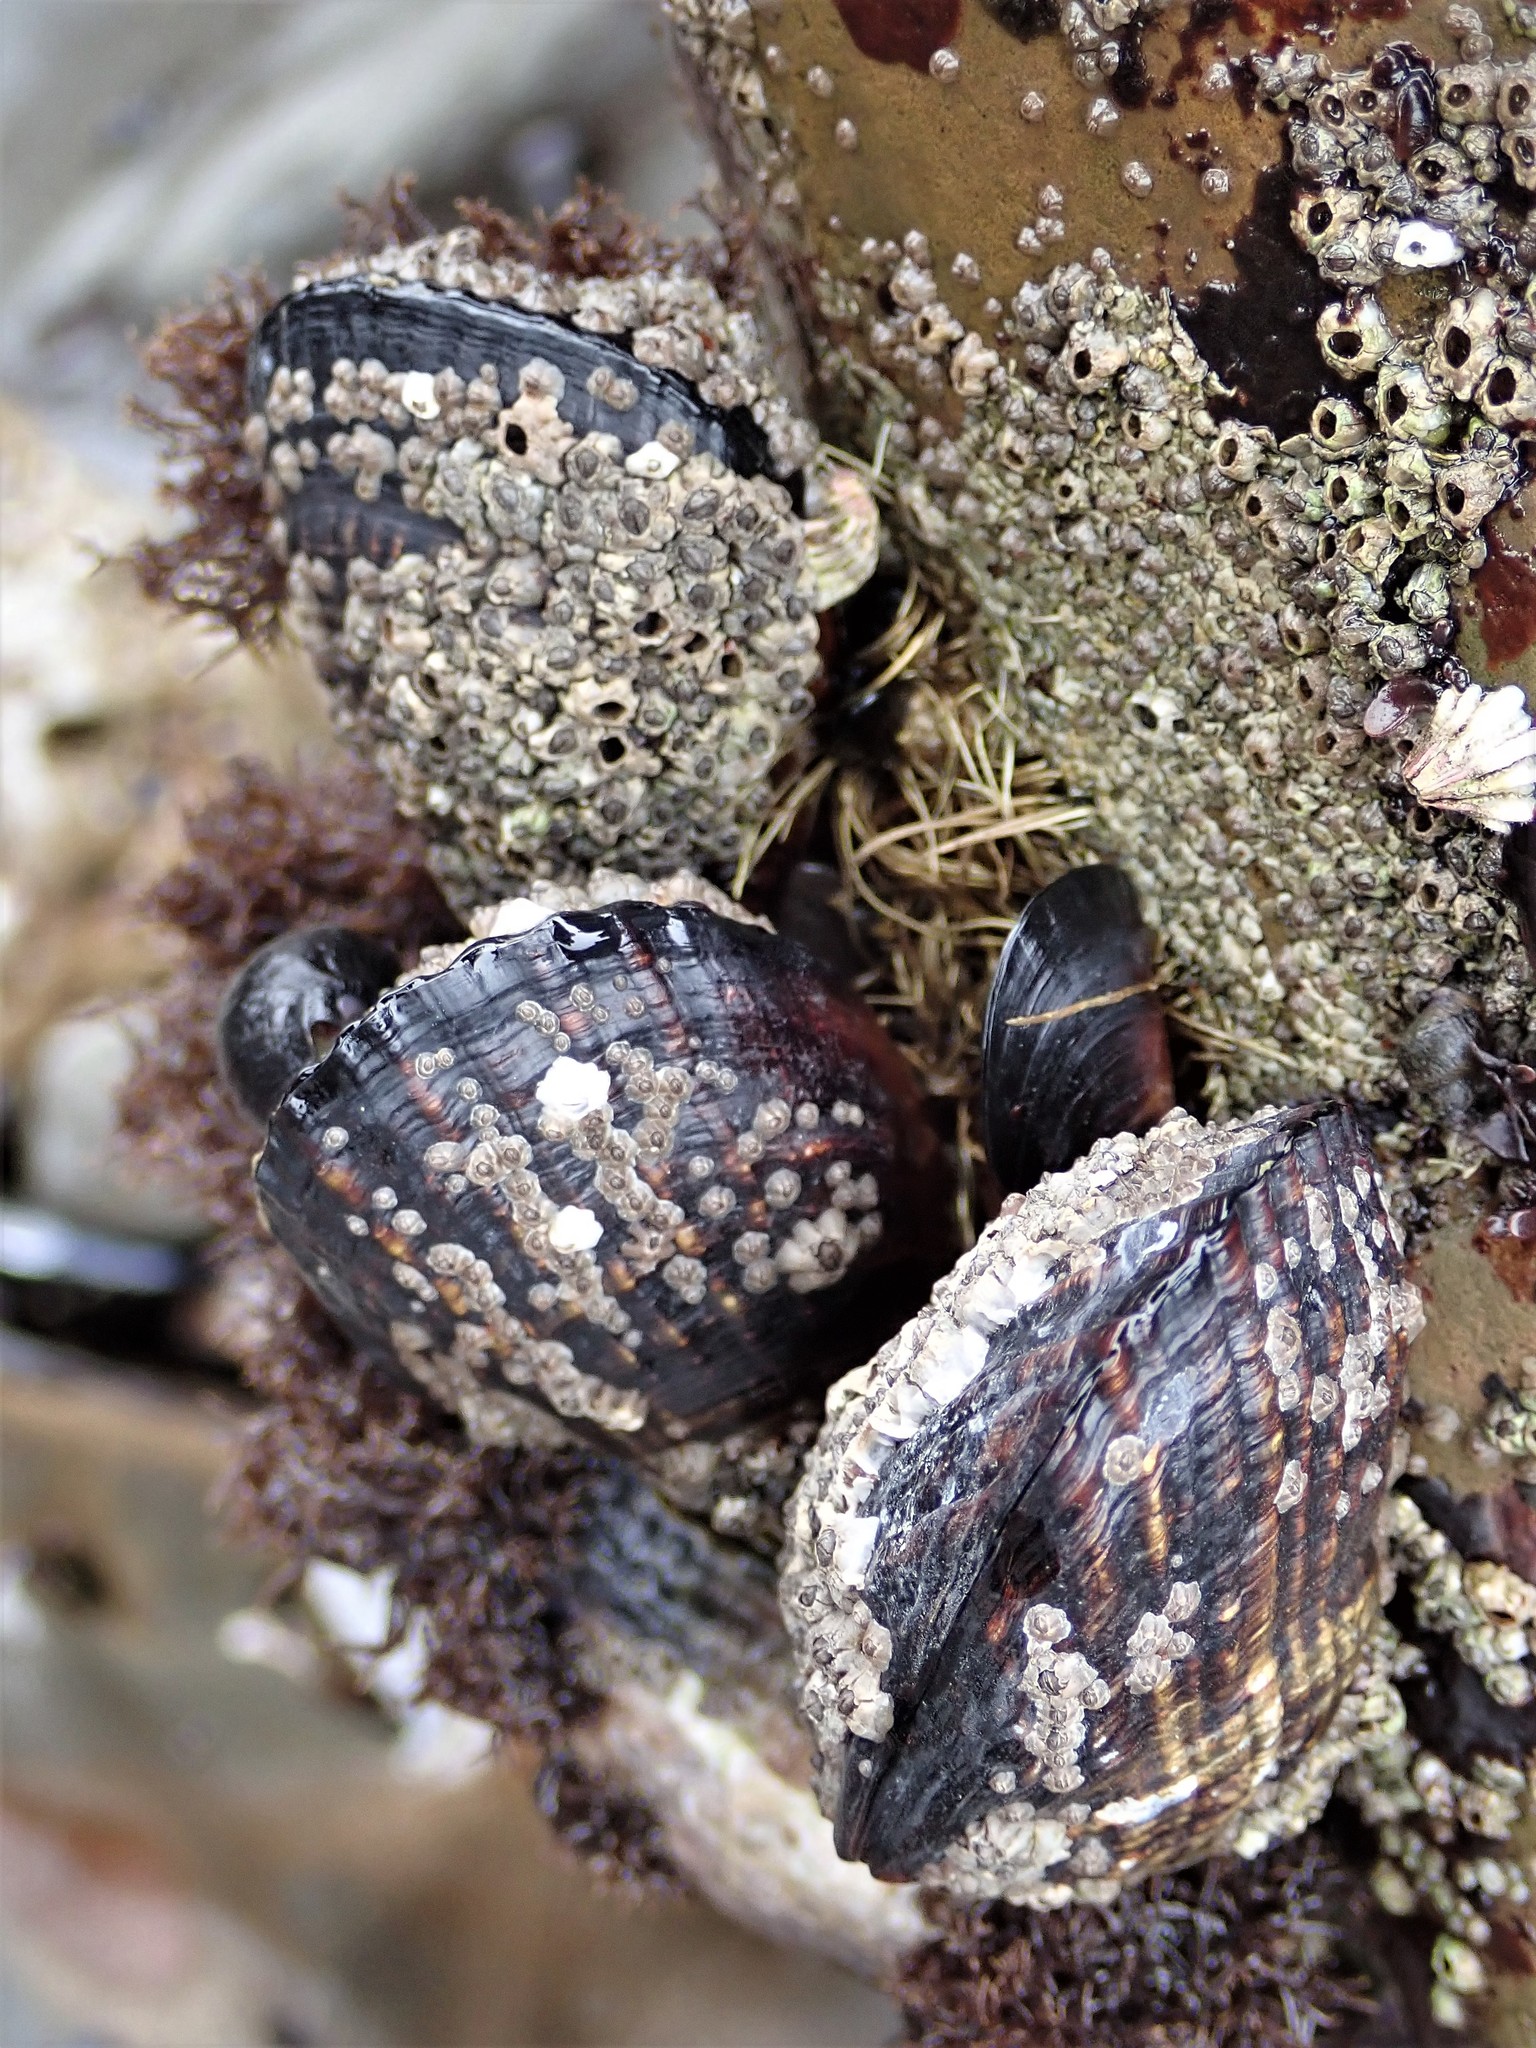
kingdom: Animalia
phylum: Mollusca
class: Bivalvia
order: Mytilida
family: Mytilidae
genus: Mytilus
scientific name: Mytilus californianus
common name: California mussel
